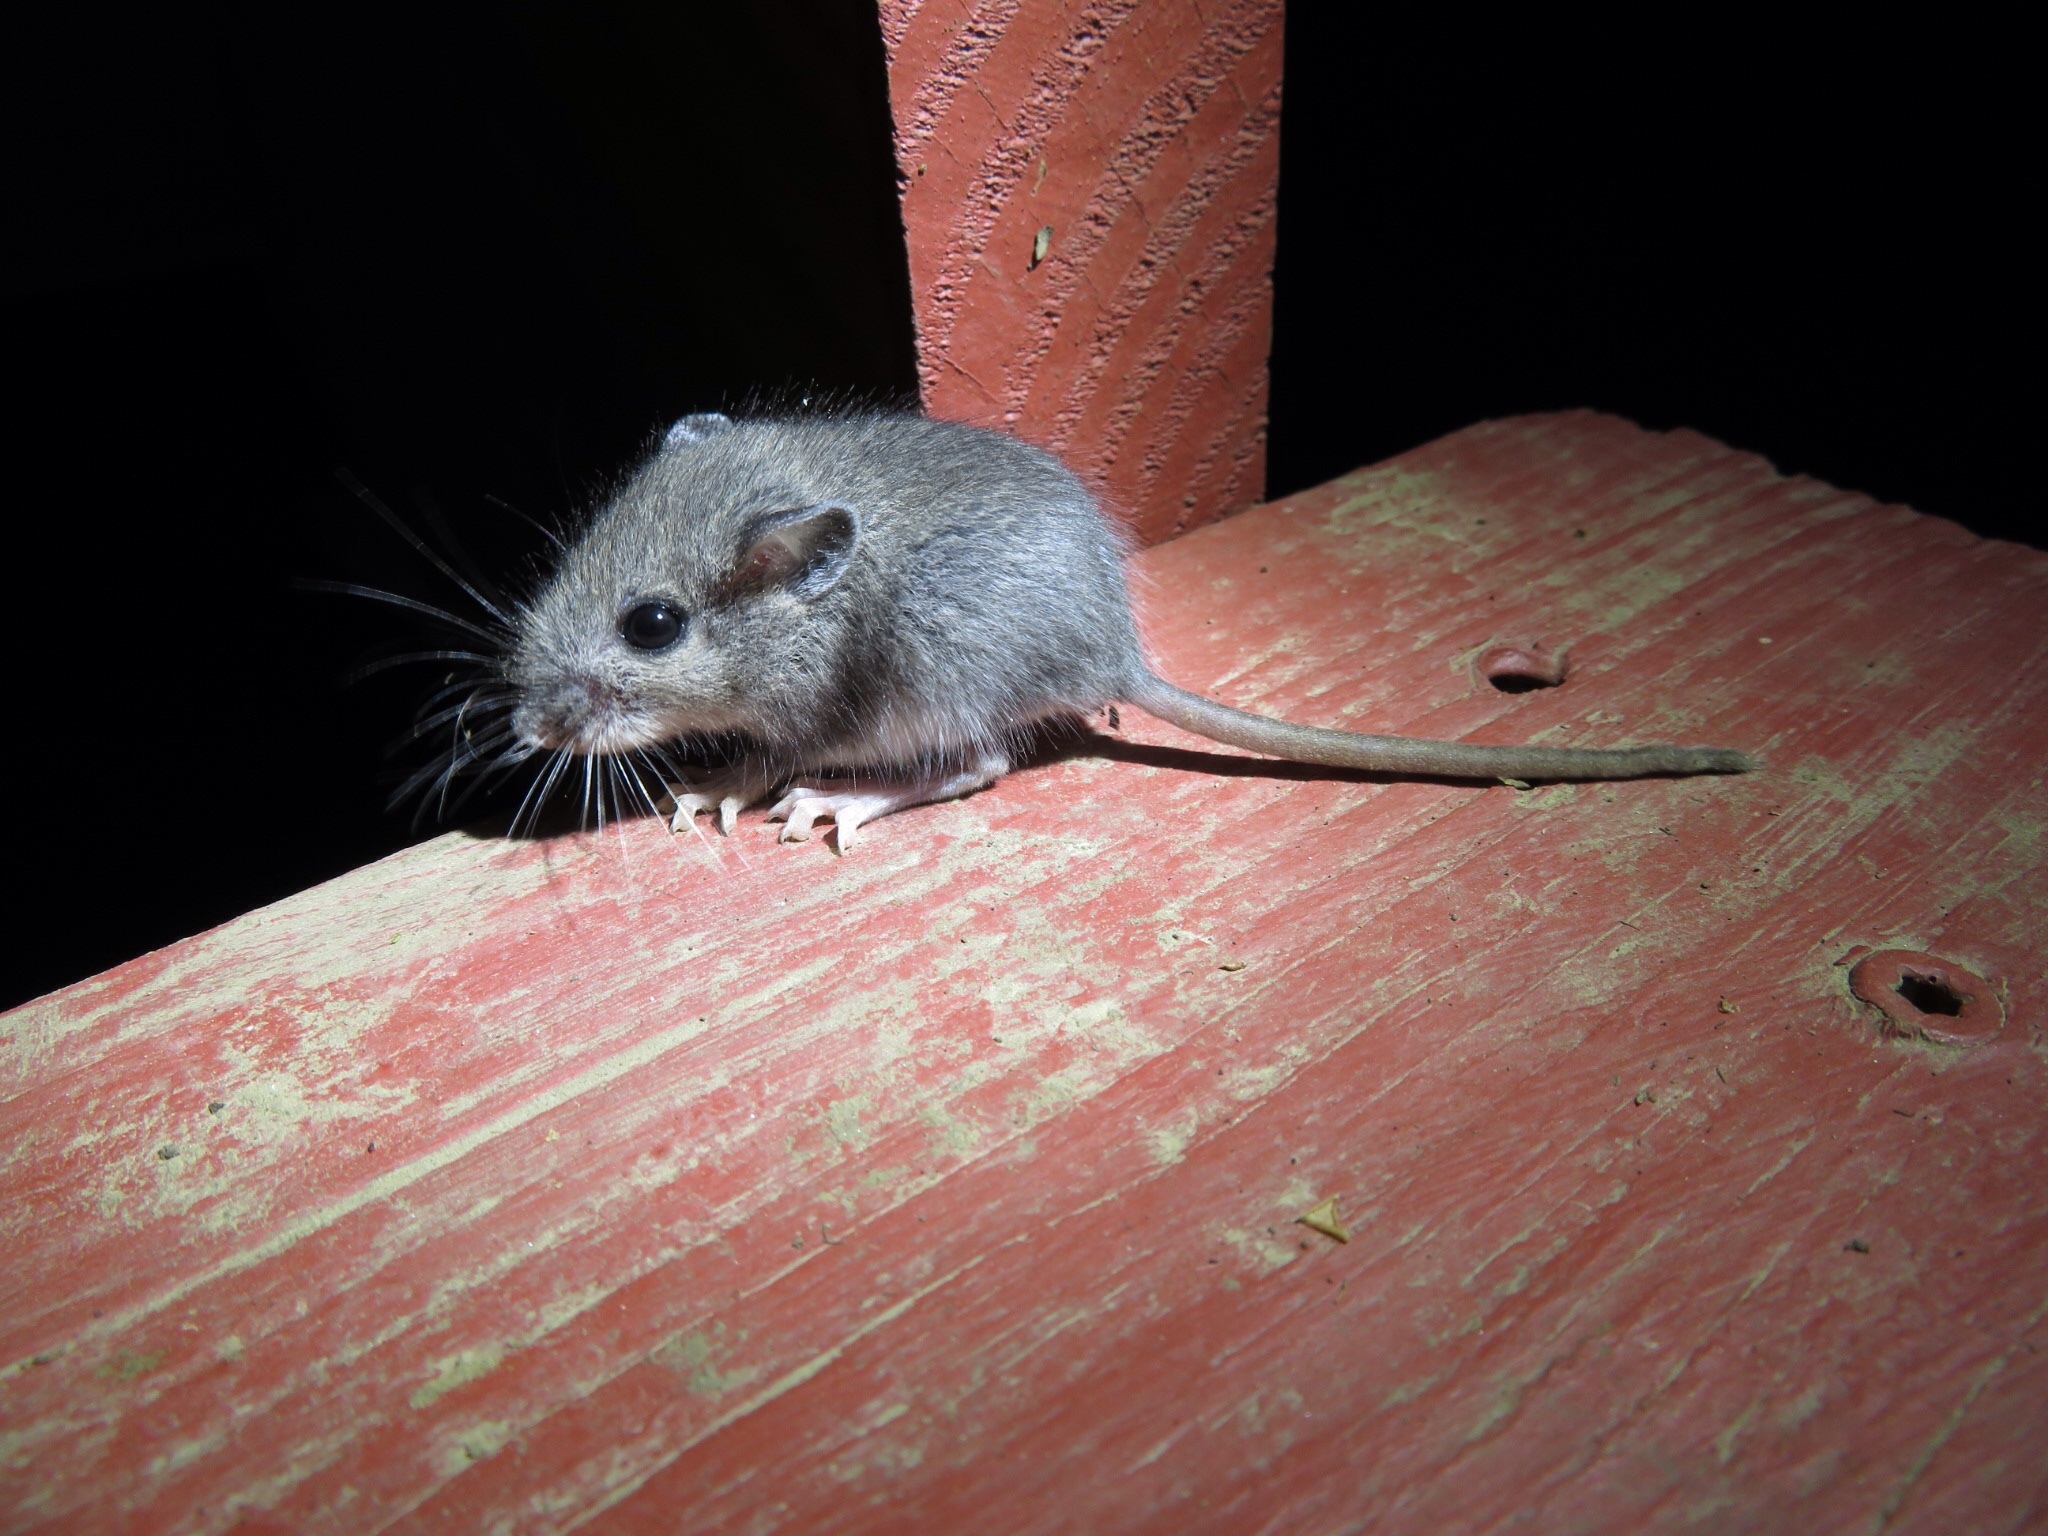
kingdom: Animalia
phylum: Chordata
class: Mammalia
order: Rodentia
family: Cricetidae
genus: Peromyscus
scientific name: Peromyscus leucopus
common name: White-footed deermouse
